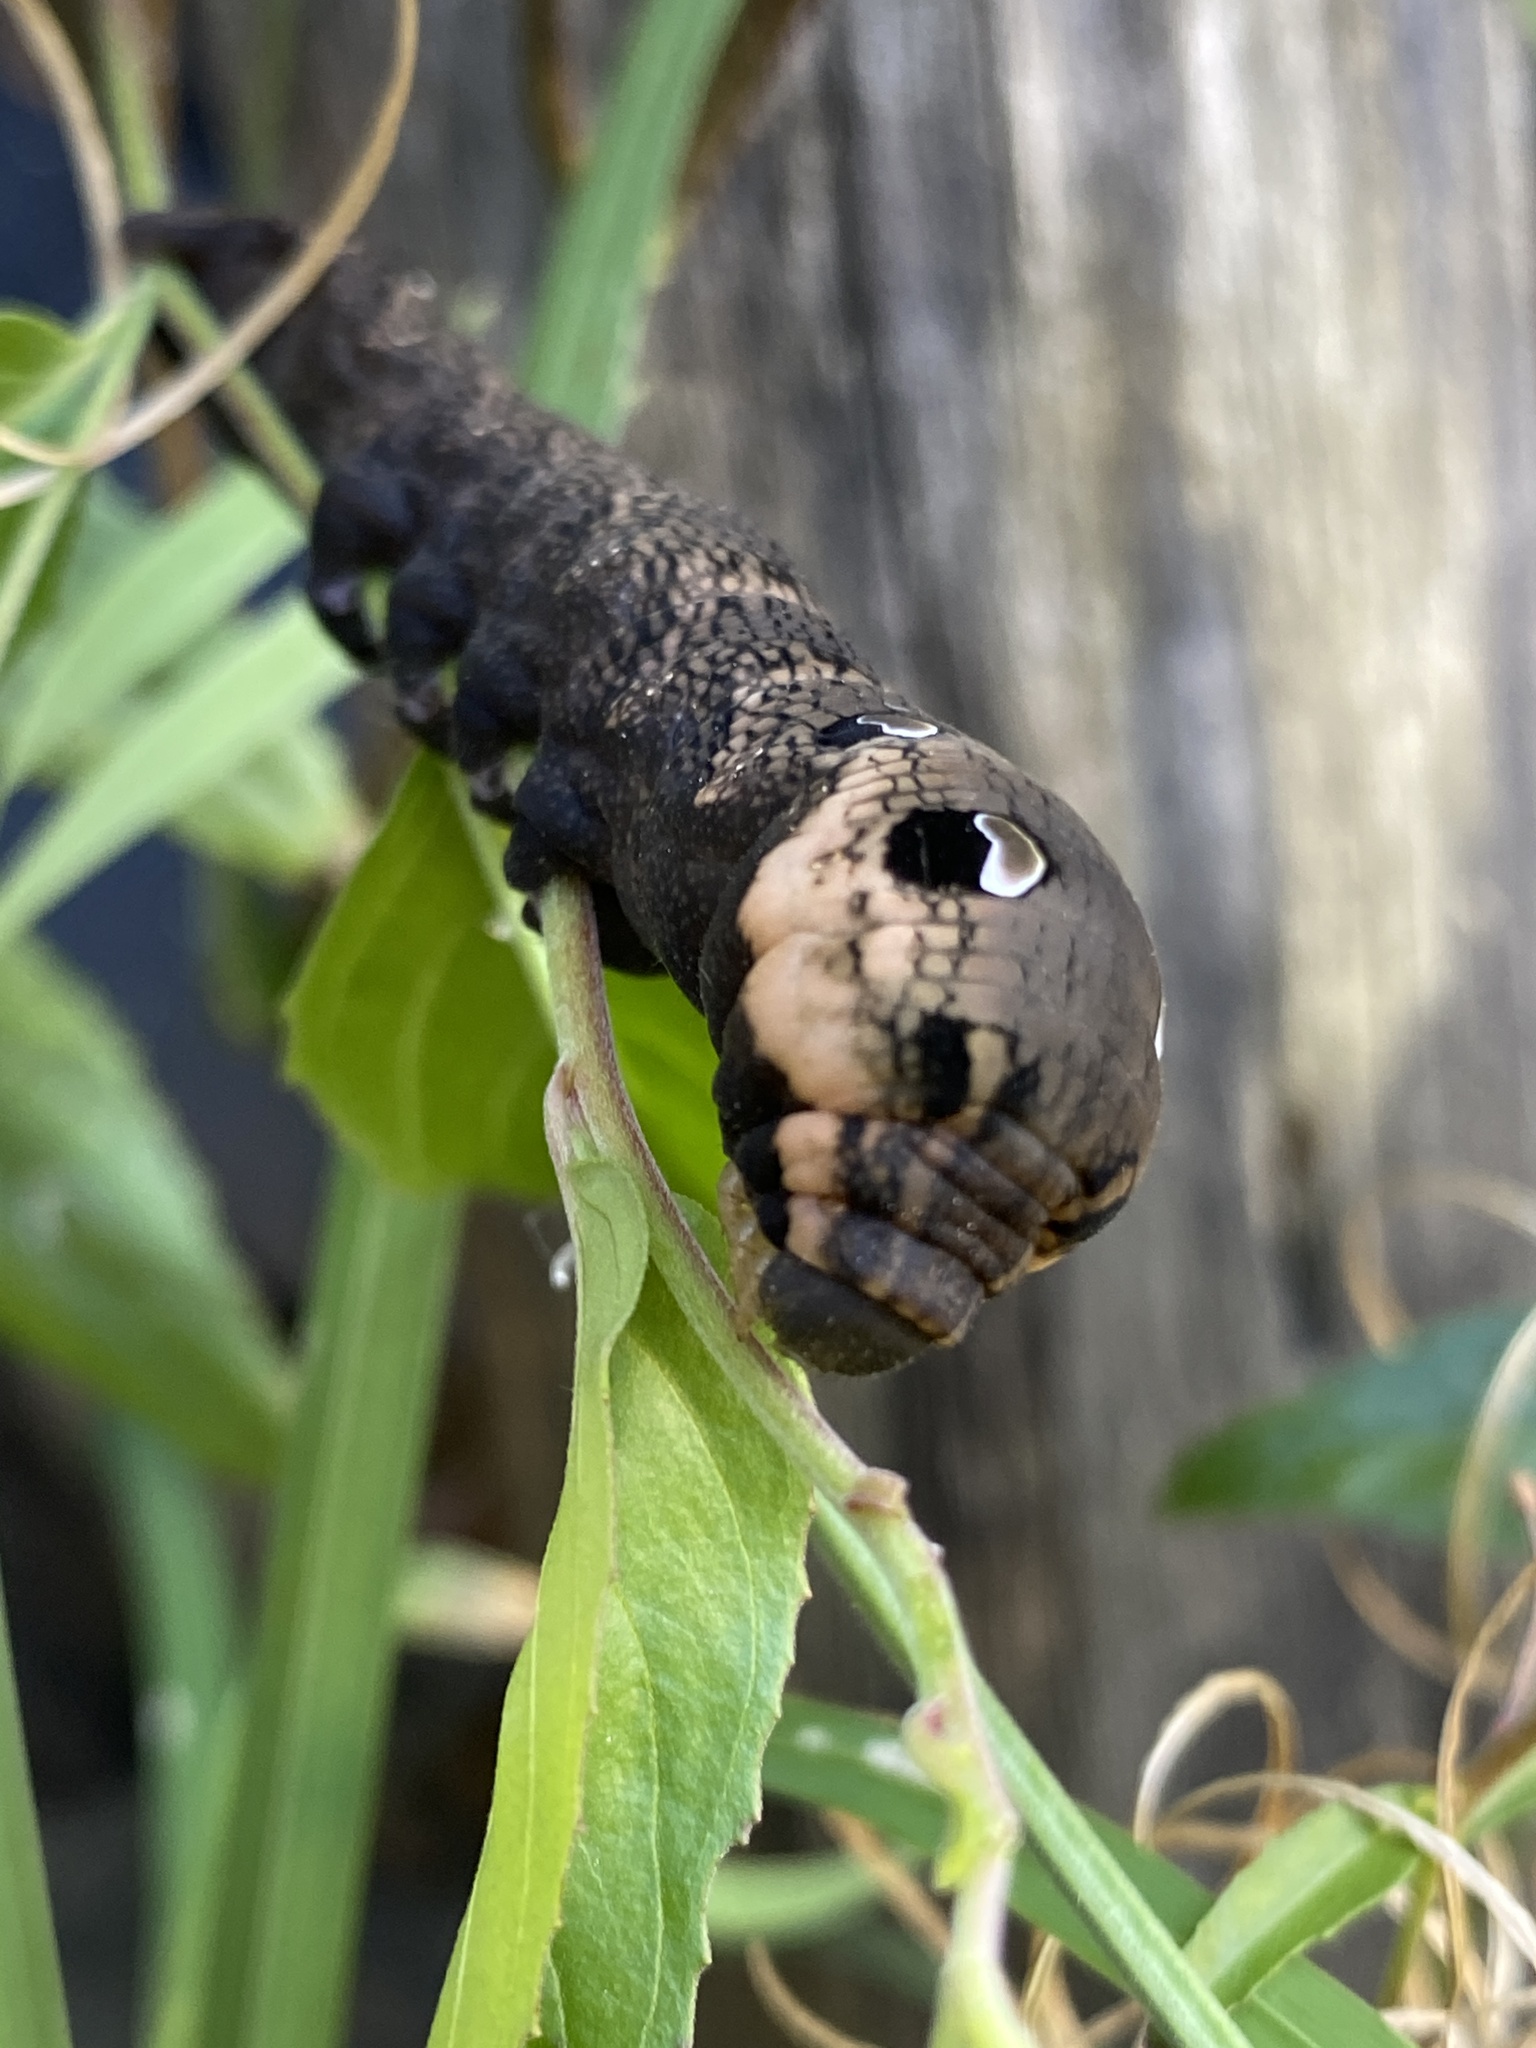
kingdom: Animalia
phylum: Arthropoda
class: Insecta
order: Lepidoptera
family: Sphingidae
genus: Deilephila
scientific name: Deilephila elpenor
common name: Elephant hawk-moth
